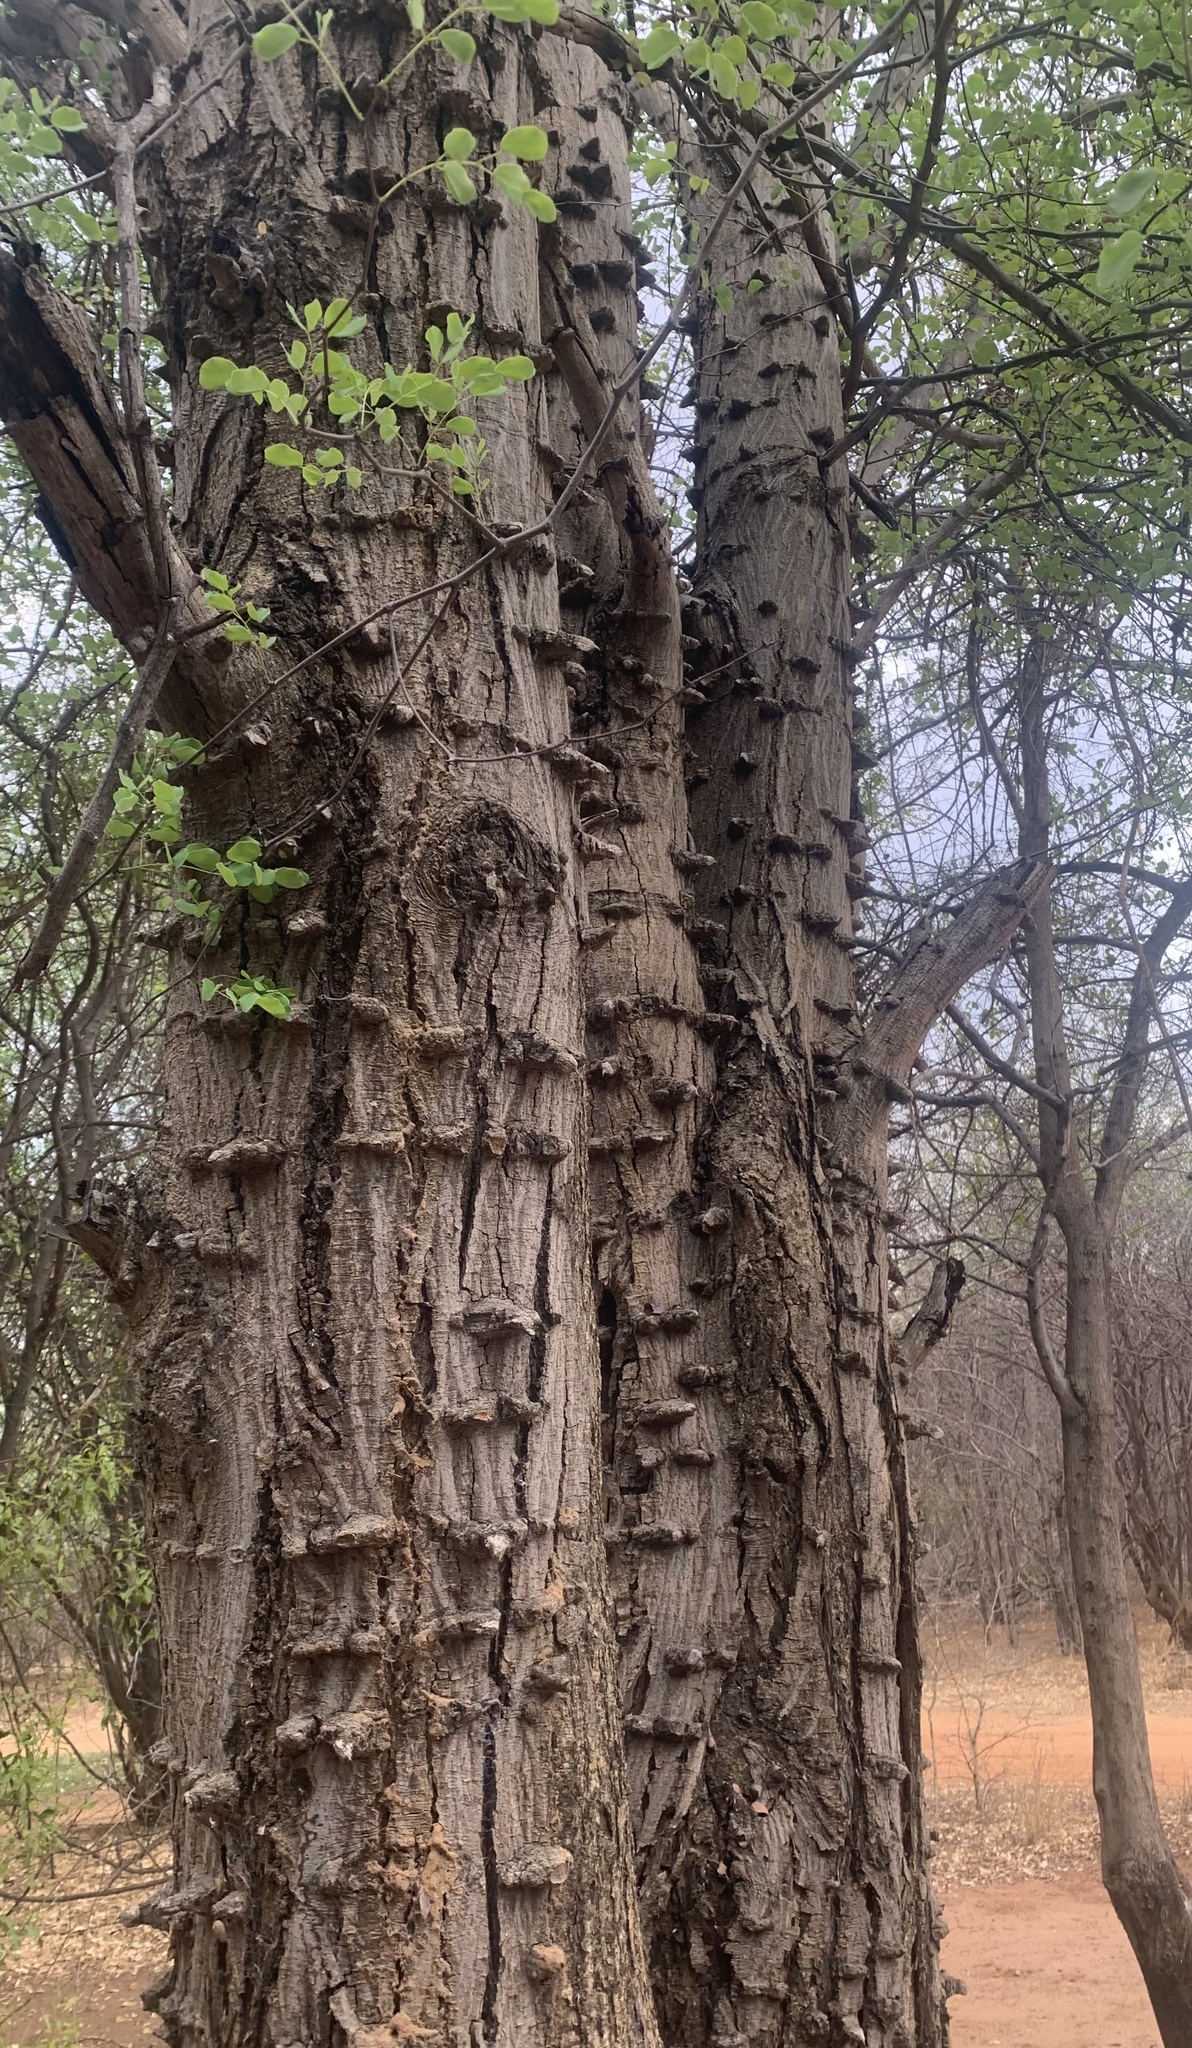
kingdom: Plantae
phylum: Tracheophyta
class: Magnoliopsida
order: Fabales
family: Fabaceae
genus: Senegalia
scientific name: Senegalia nigrescens
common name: Knobthorn
